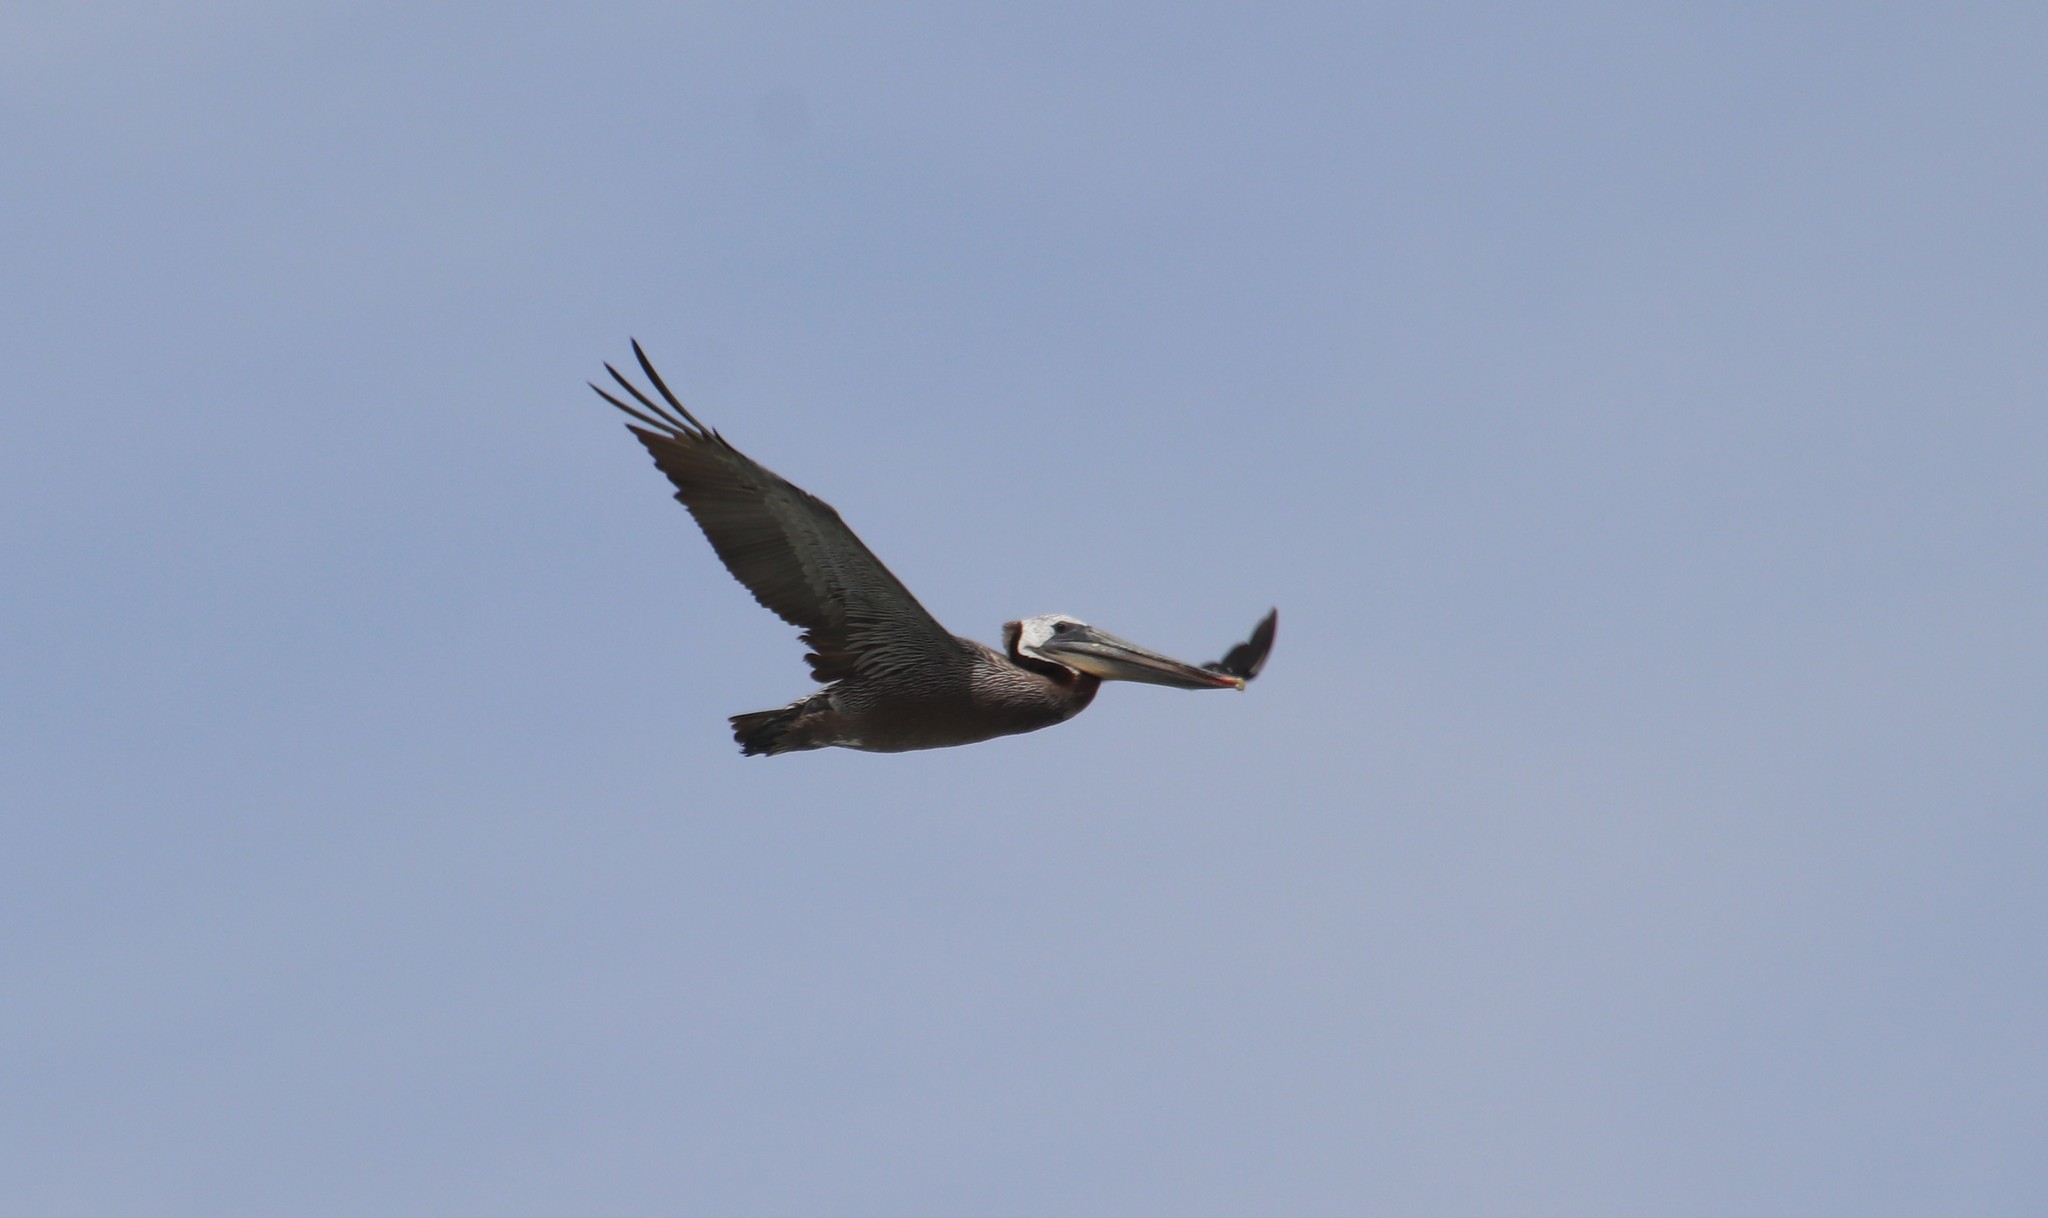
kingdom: Animalia
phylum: Chordata
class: Aves
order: Pelecaniformes
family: Pelecanidae
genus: Pelecanus
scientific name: Pelecanus occidentalis
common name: Brown pelican
